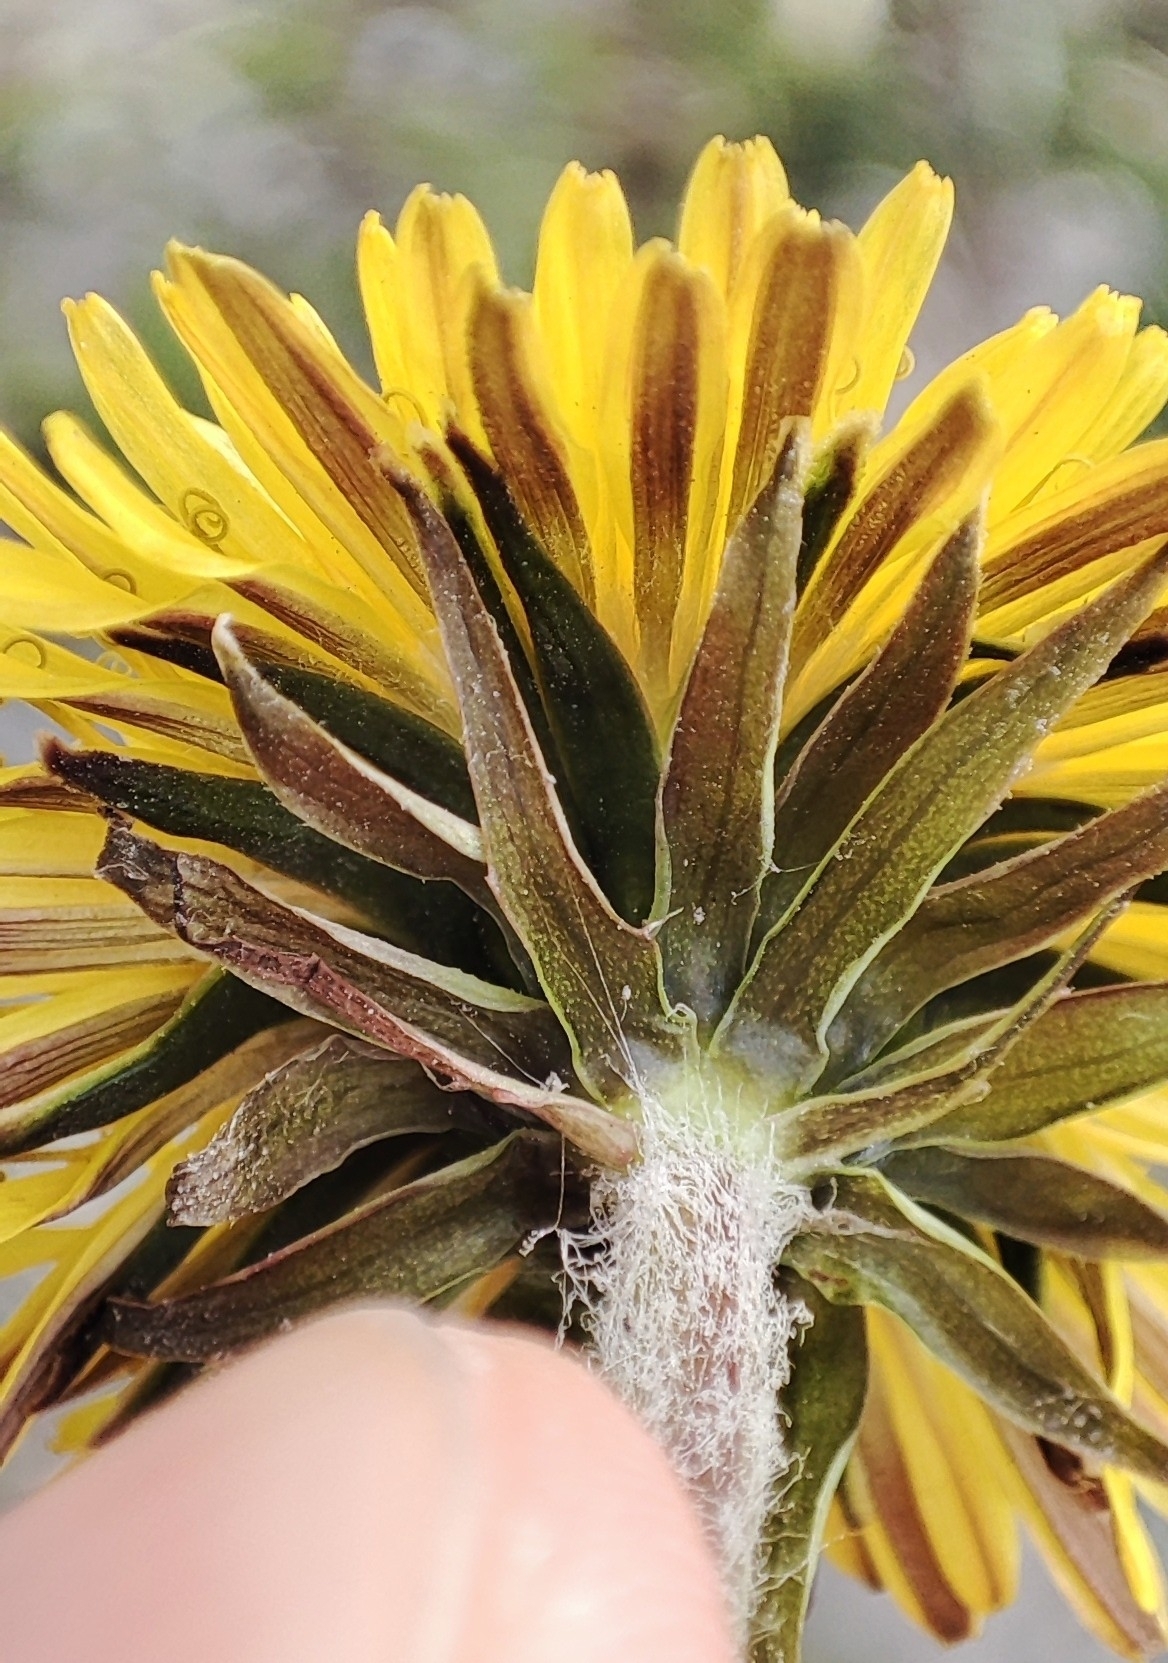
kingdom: Plantae
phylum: Tracheophyta
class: Magnoliopsida
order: Asterales
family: Asteraceae
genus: Taraxacum
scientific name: Taraxacum officinale
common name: Common dandelion
